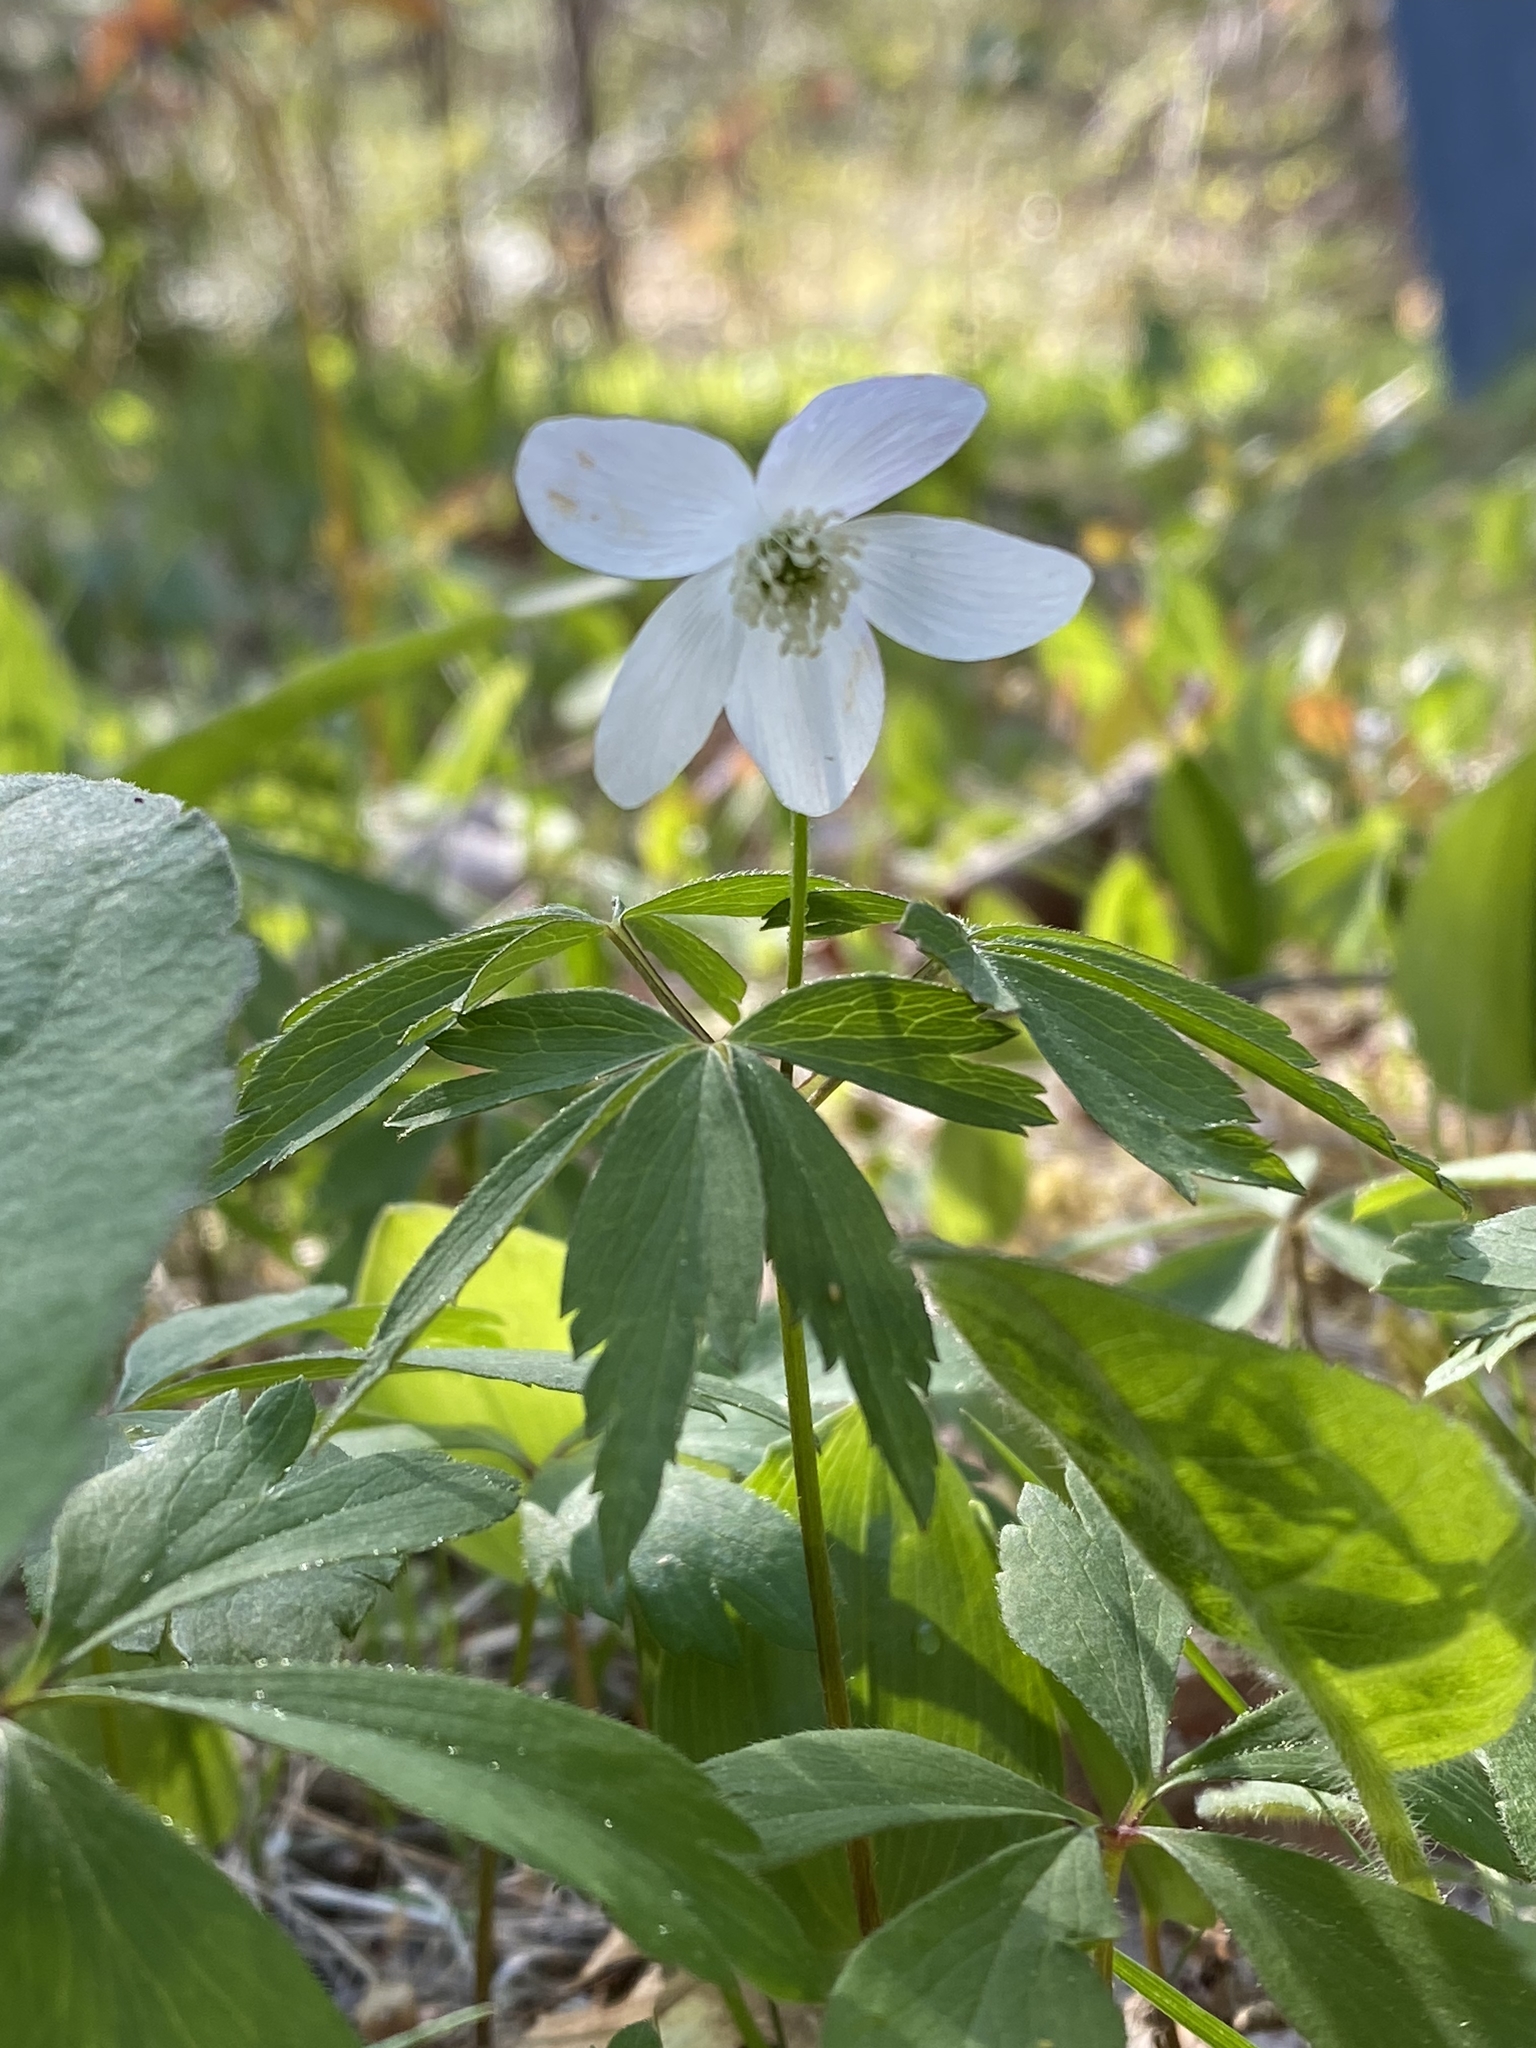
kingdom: Plantae
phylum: Tracheophyta
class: Magnoliopsida
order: Ranunculales
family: Ranunculaceae
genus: Anemone
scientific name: Anemone quinquefolia
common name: Wood anemone
